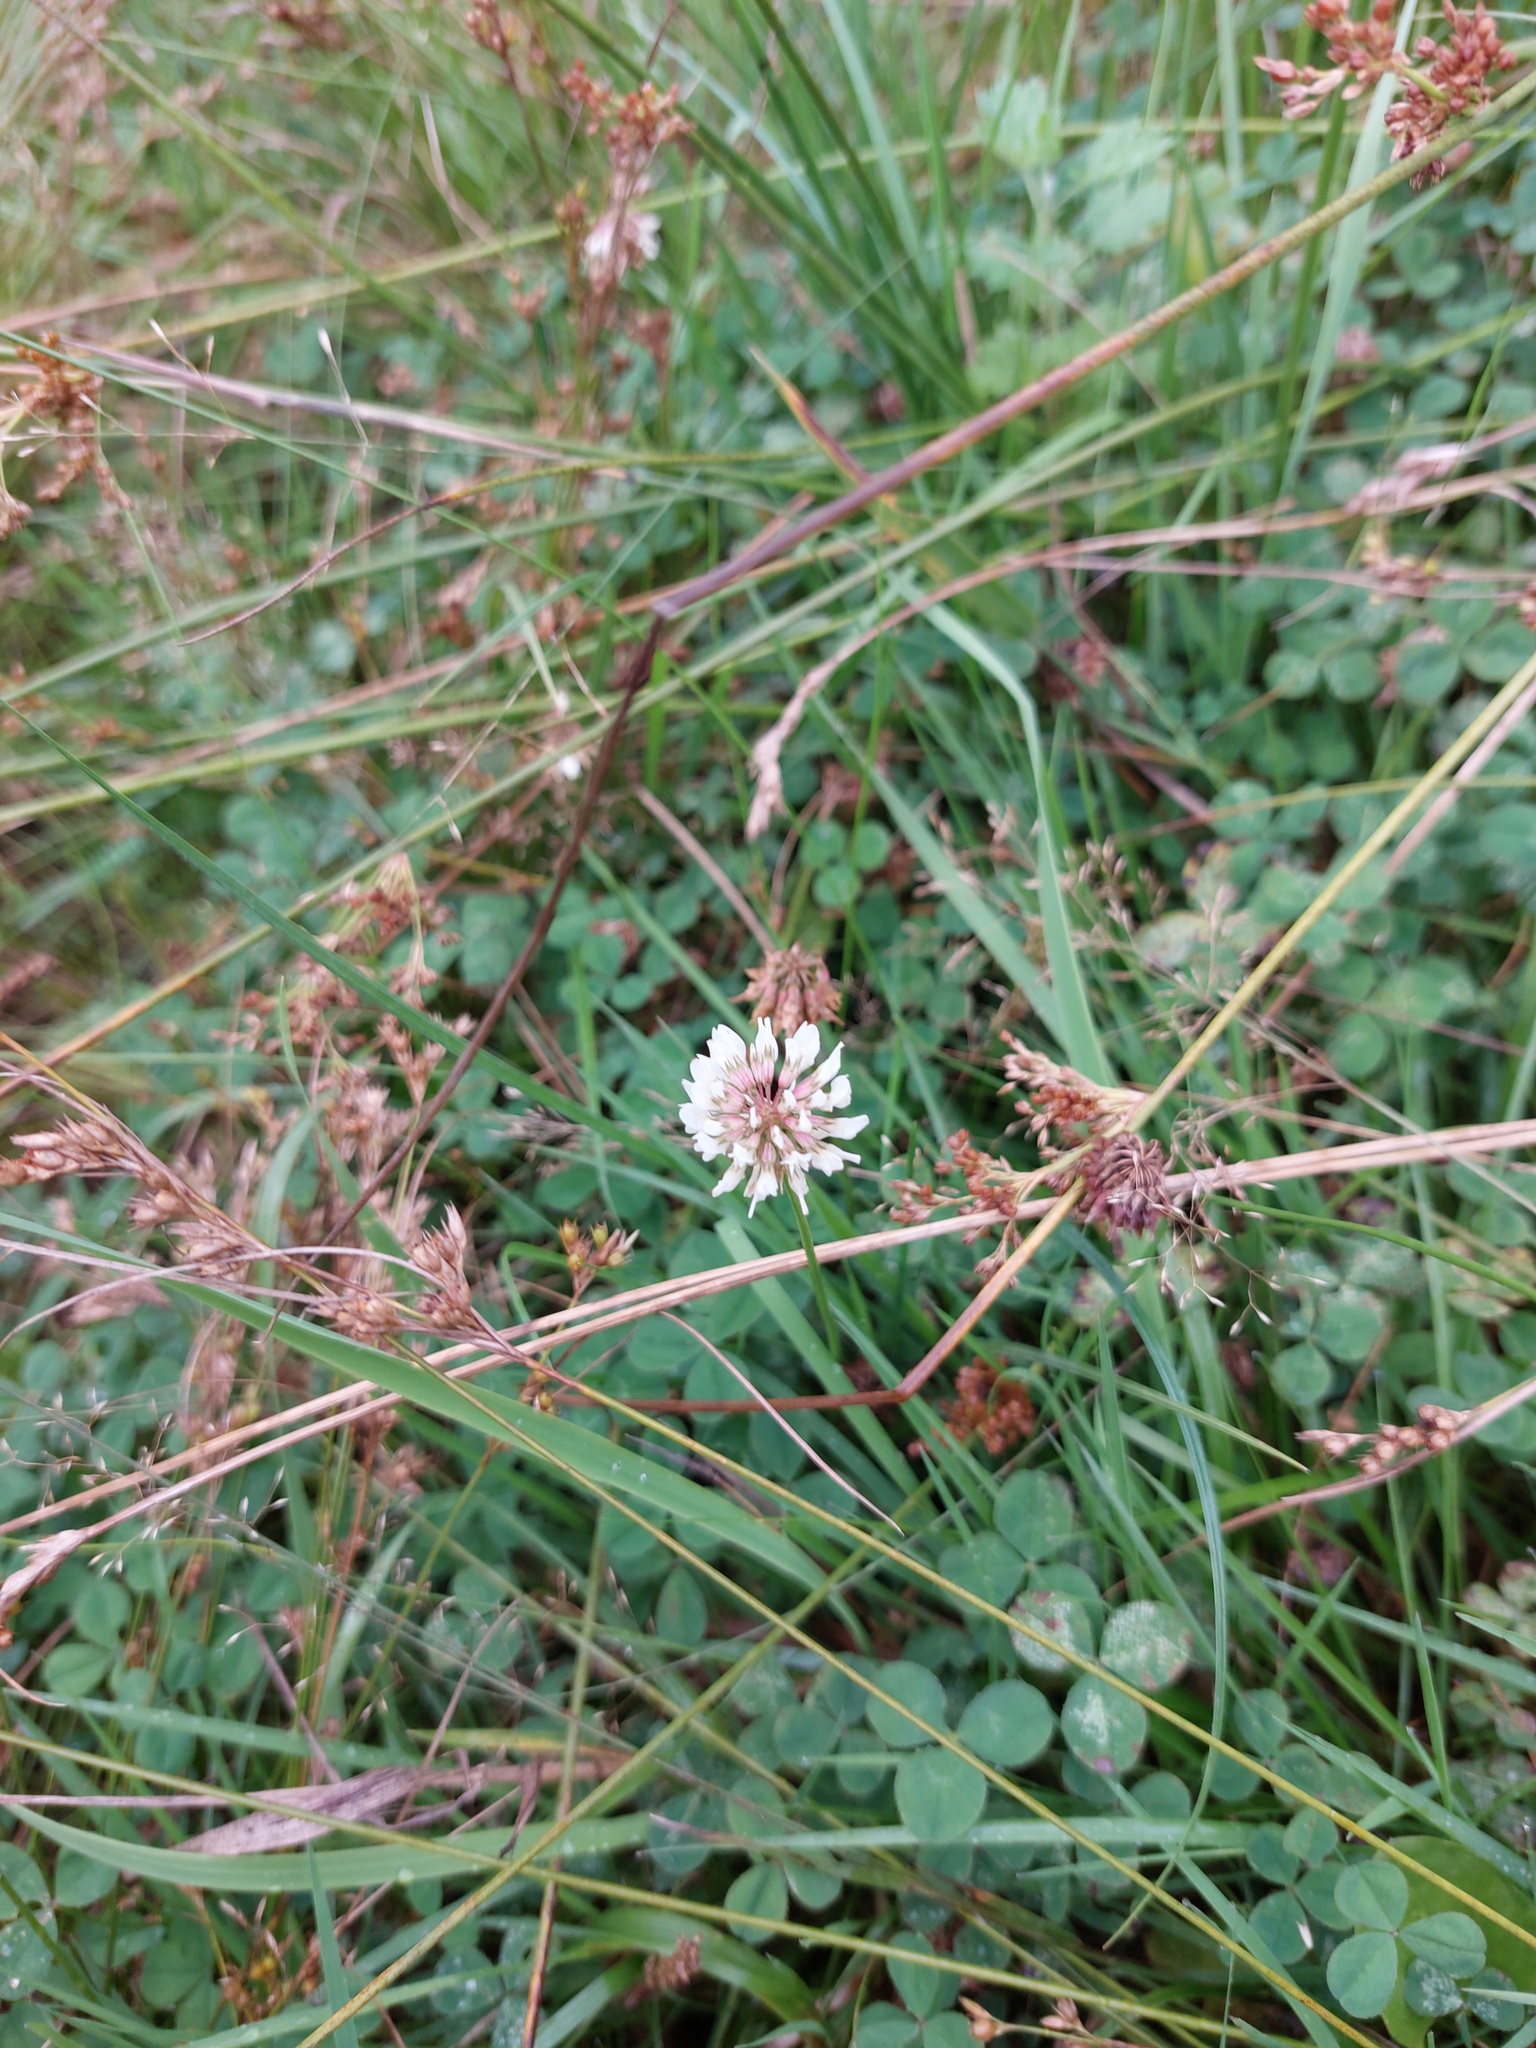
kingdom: Plantae
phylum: Tracheophyta
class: Magnoliopsida
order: Fabales
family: Fabaceae
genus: Trifolium
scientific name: Trifolium repens
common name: White clover
